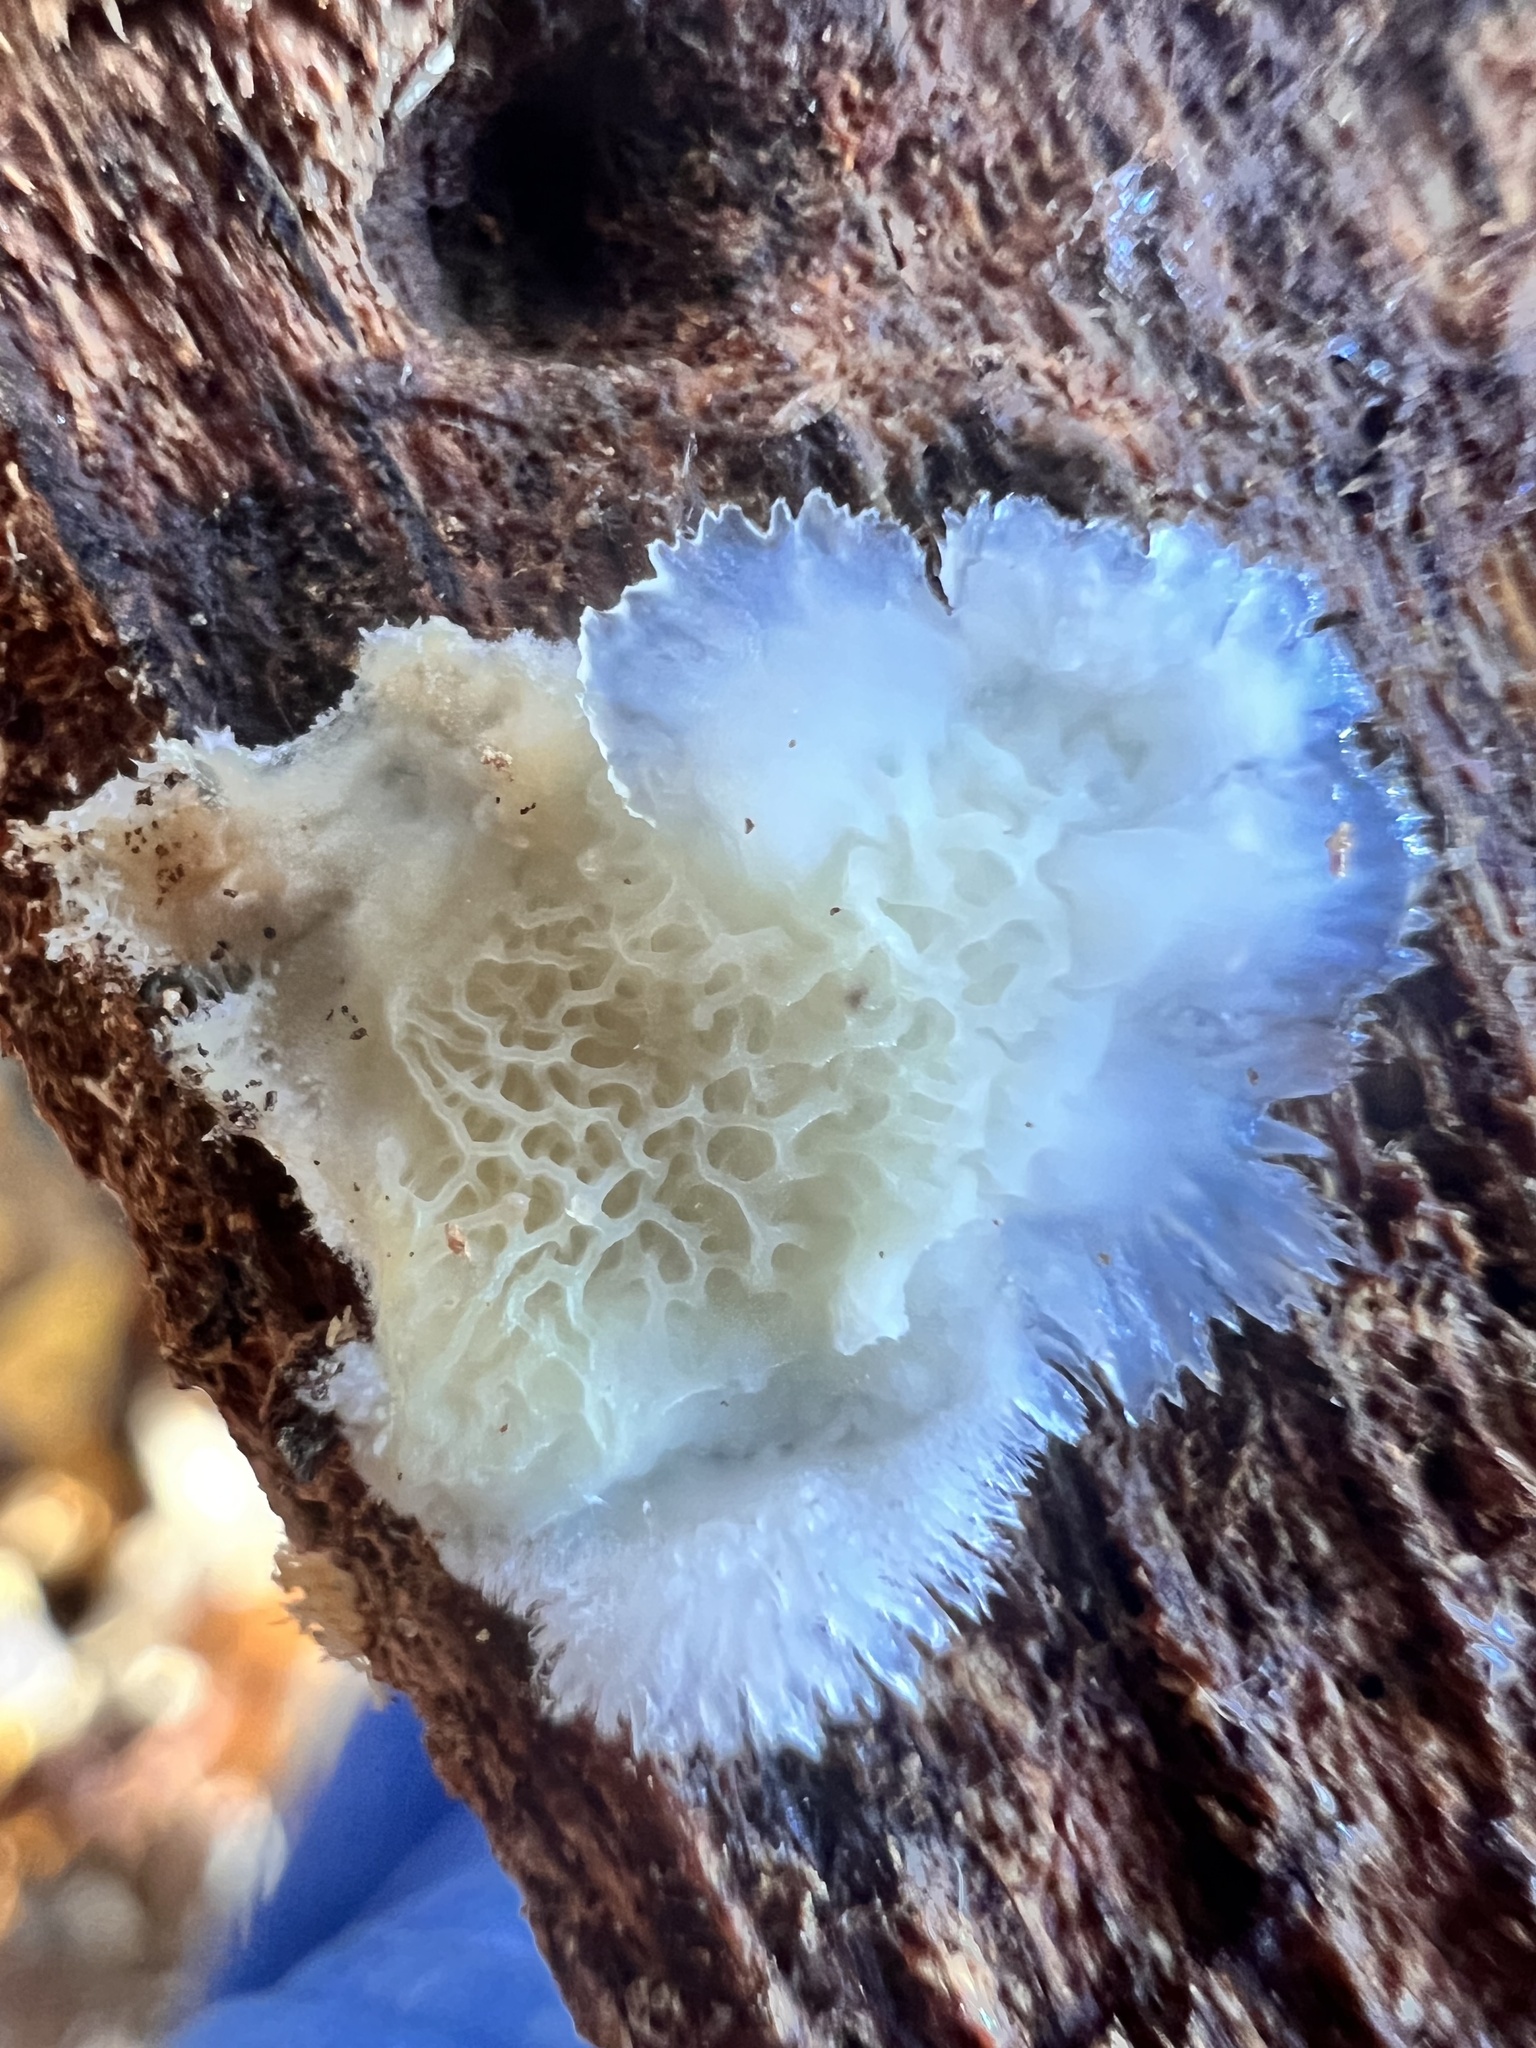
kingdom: Fungi
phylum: Basidiomycota
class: Agaricomycetes
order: Polyporales
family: Meruliaceae
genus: Phlebia
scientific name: Phlebia tremellosa
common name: Jelly rot
